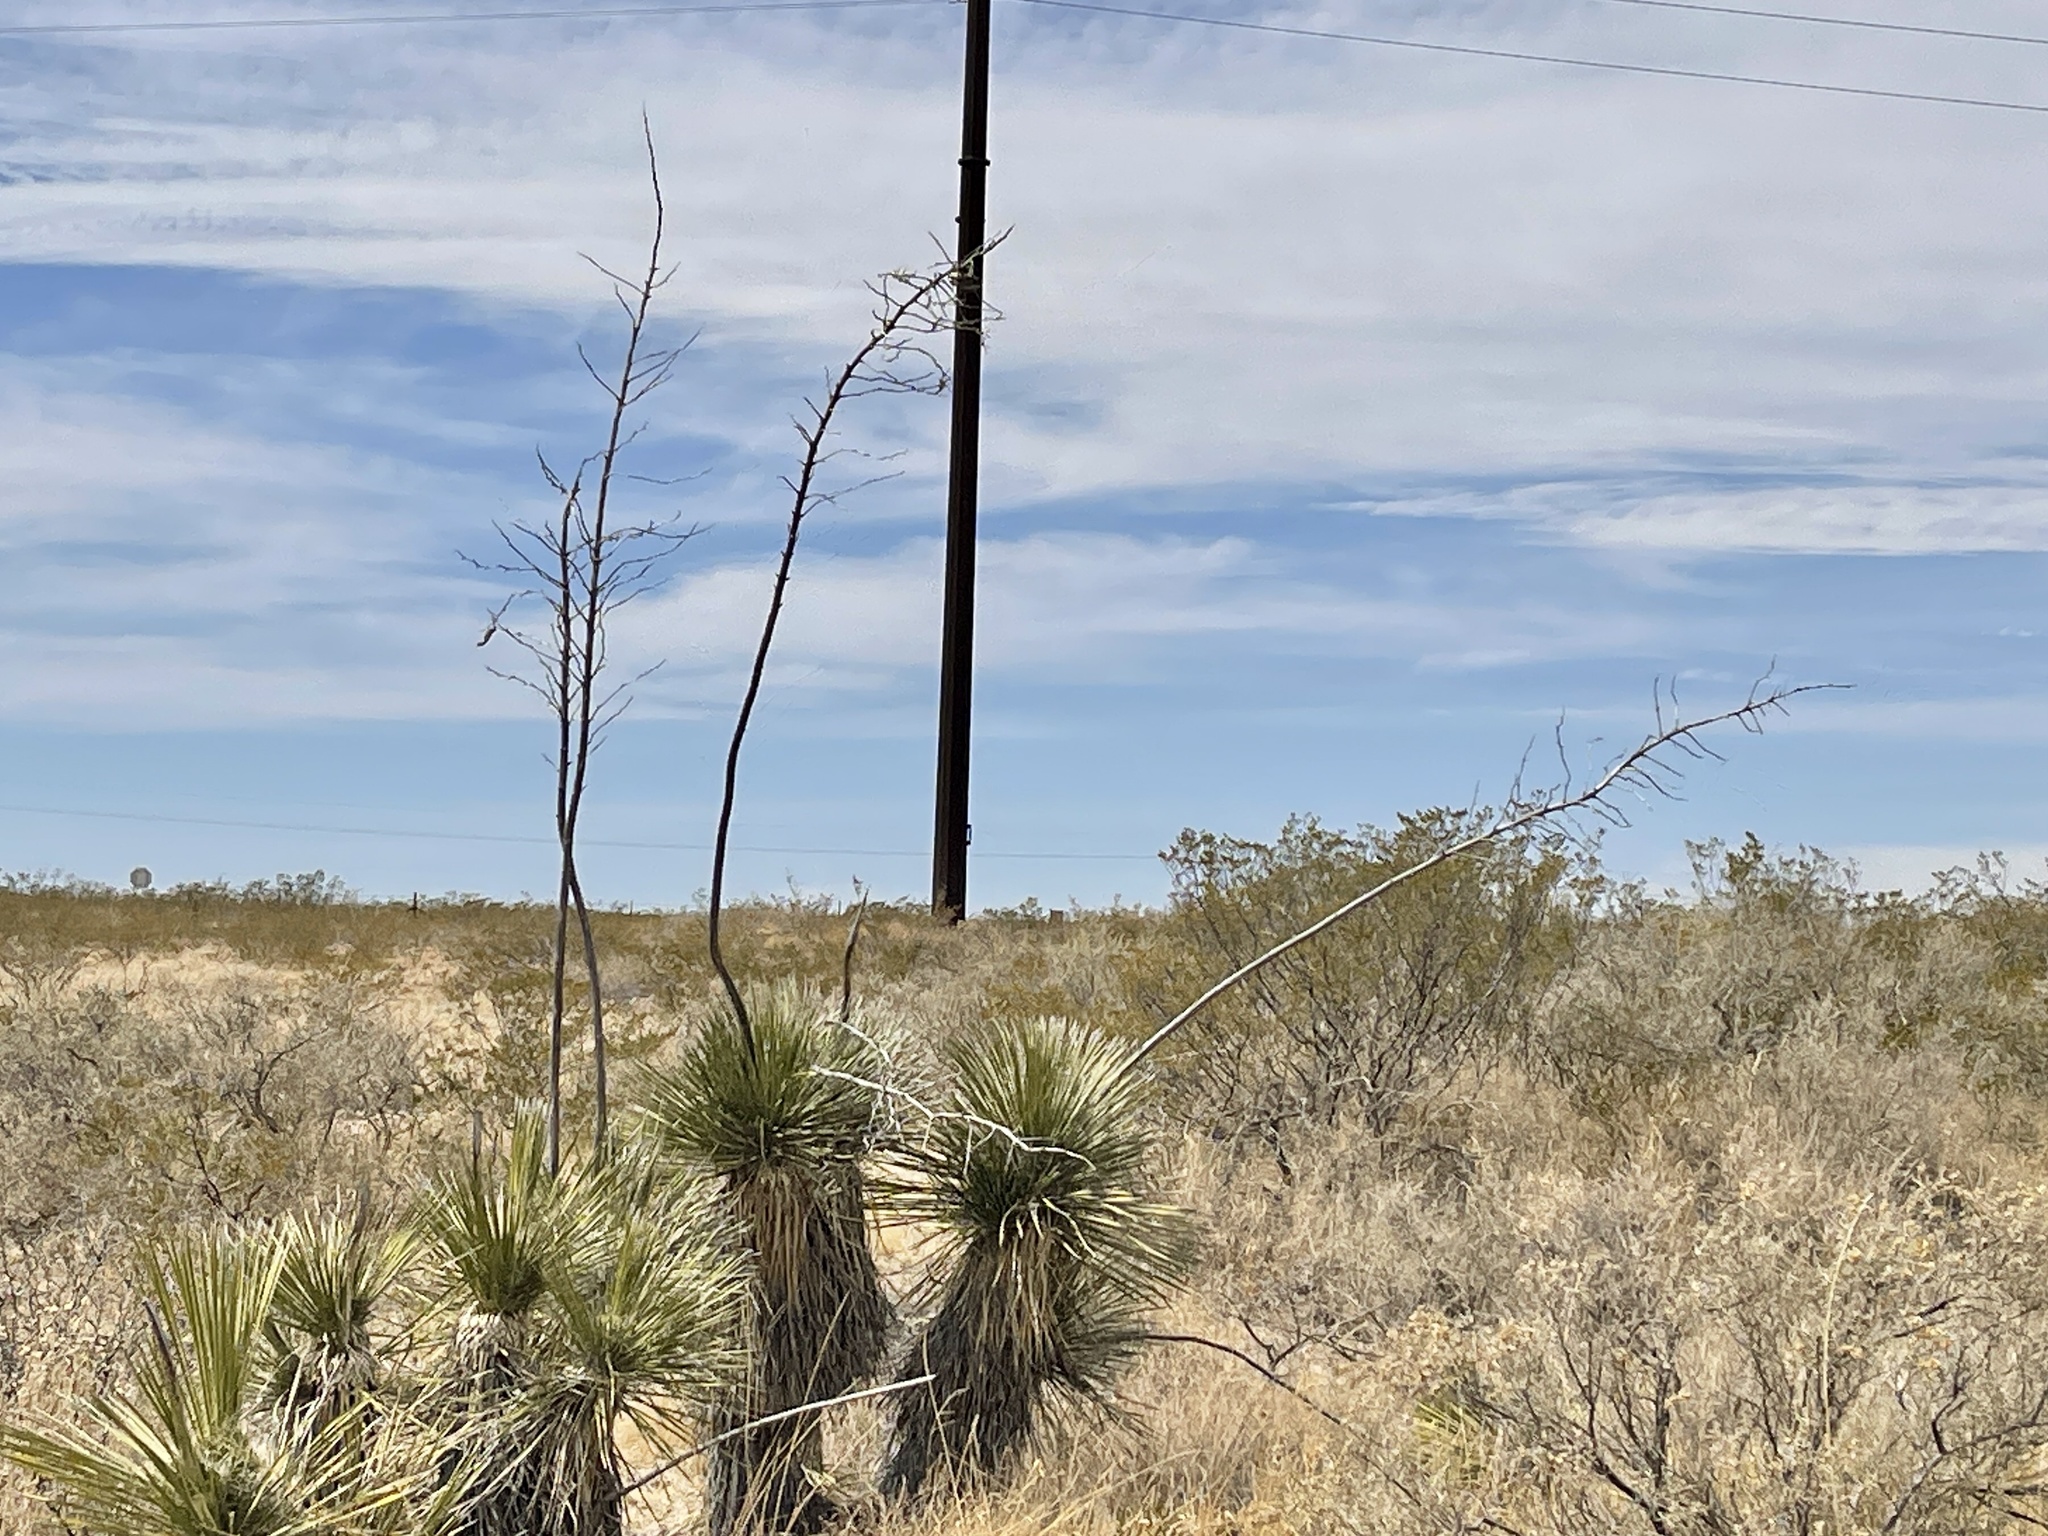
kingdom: Plantae
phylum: Tracheophyta
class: Liliopsida
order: Asparagales
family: Asparagaceae
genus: Yucca
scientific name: Yucca elata
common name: Palmella
